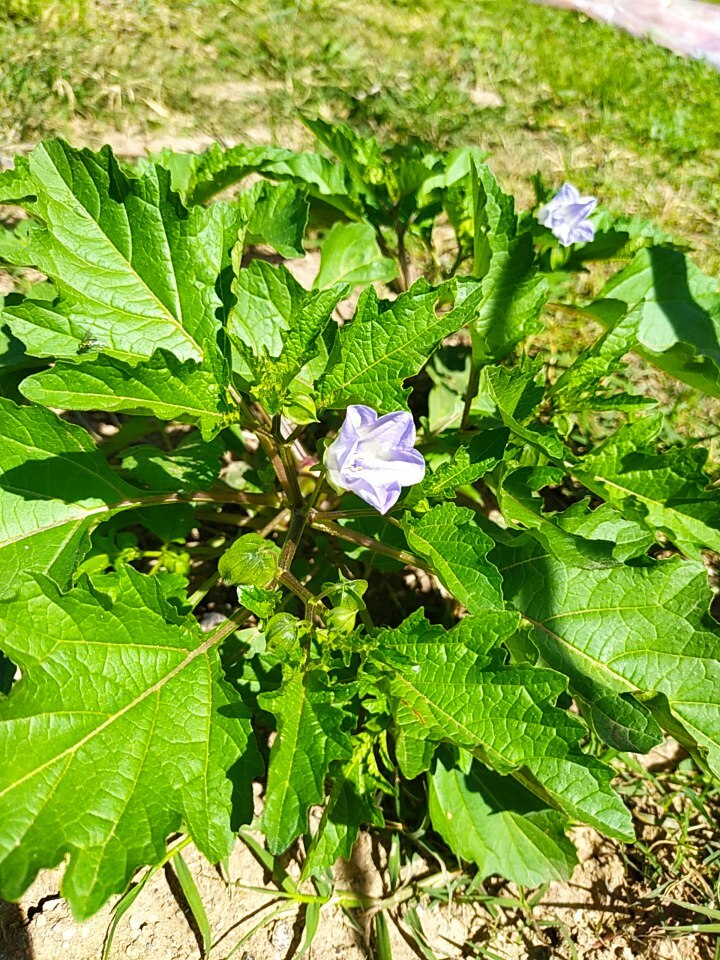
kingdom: Plantae
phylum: Tracheophyta
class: Magnoliopsida
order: Solanales
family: Solanaceae
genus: Nicandra
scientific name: Nicandra physalodes
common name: Apple-of-peru
